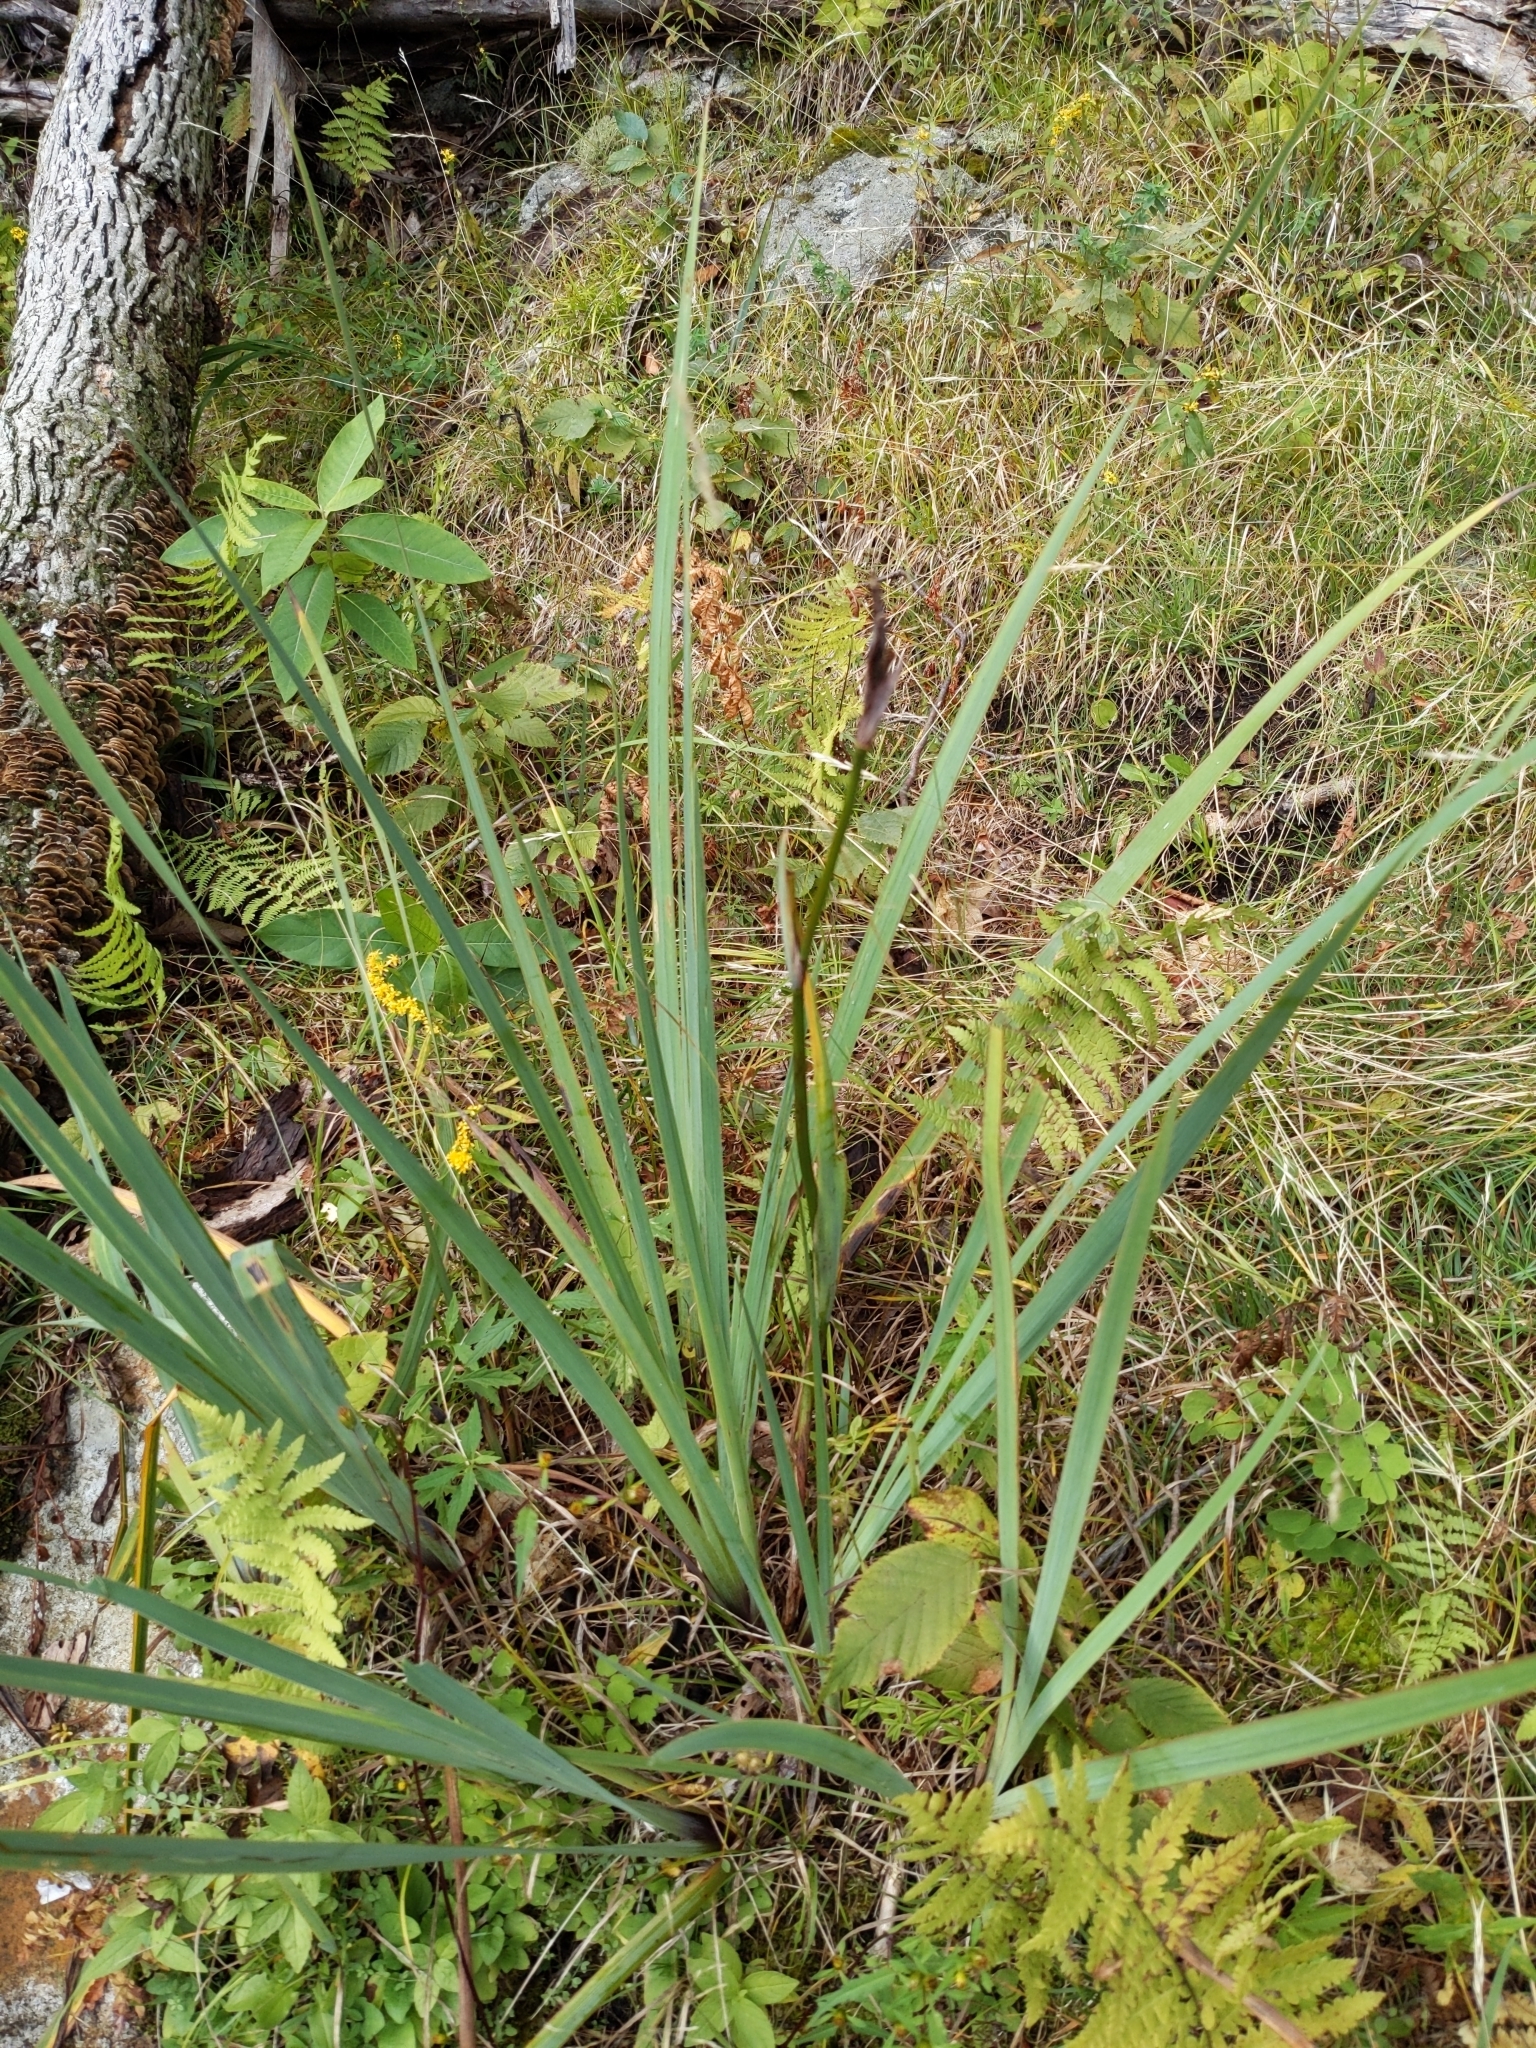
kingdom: Plantae
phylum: Tracheophyta
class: Liliopsida
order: Asparagales
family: Iridaceae
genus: Iris
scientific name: Iris versicolor
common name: Purple iris
